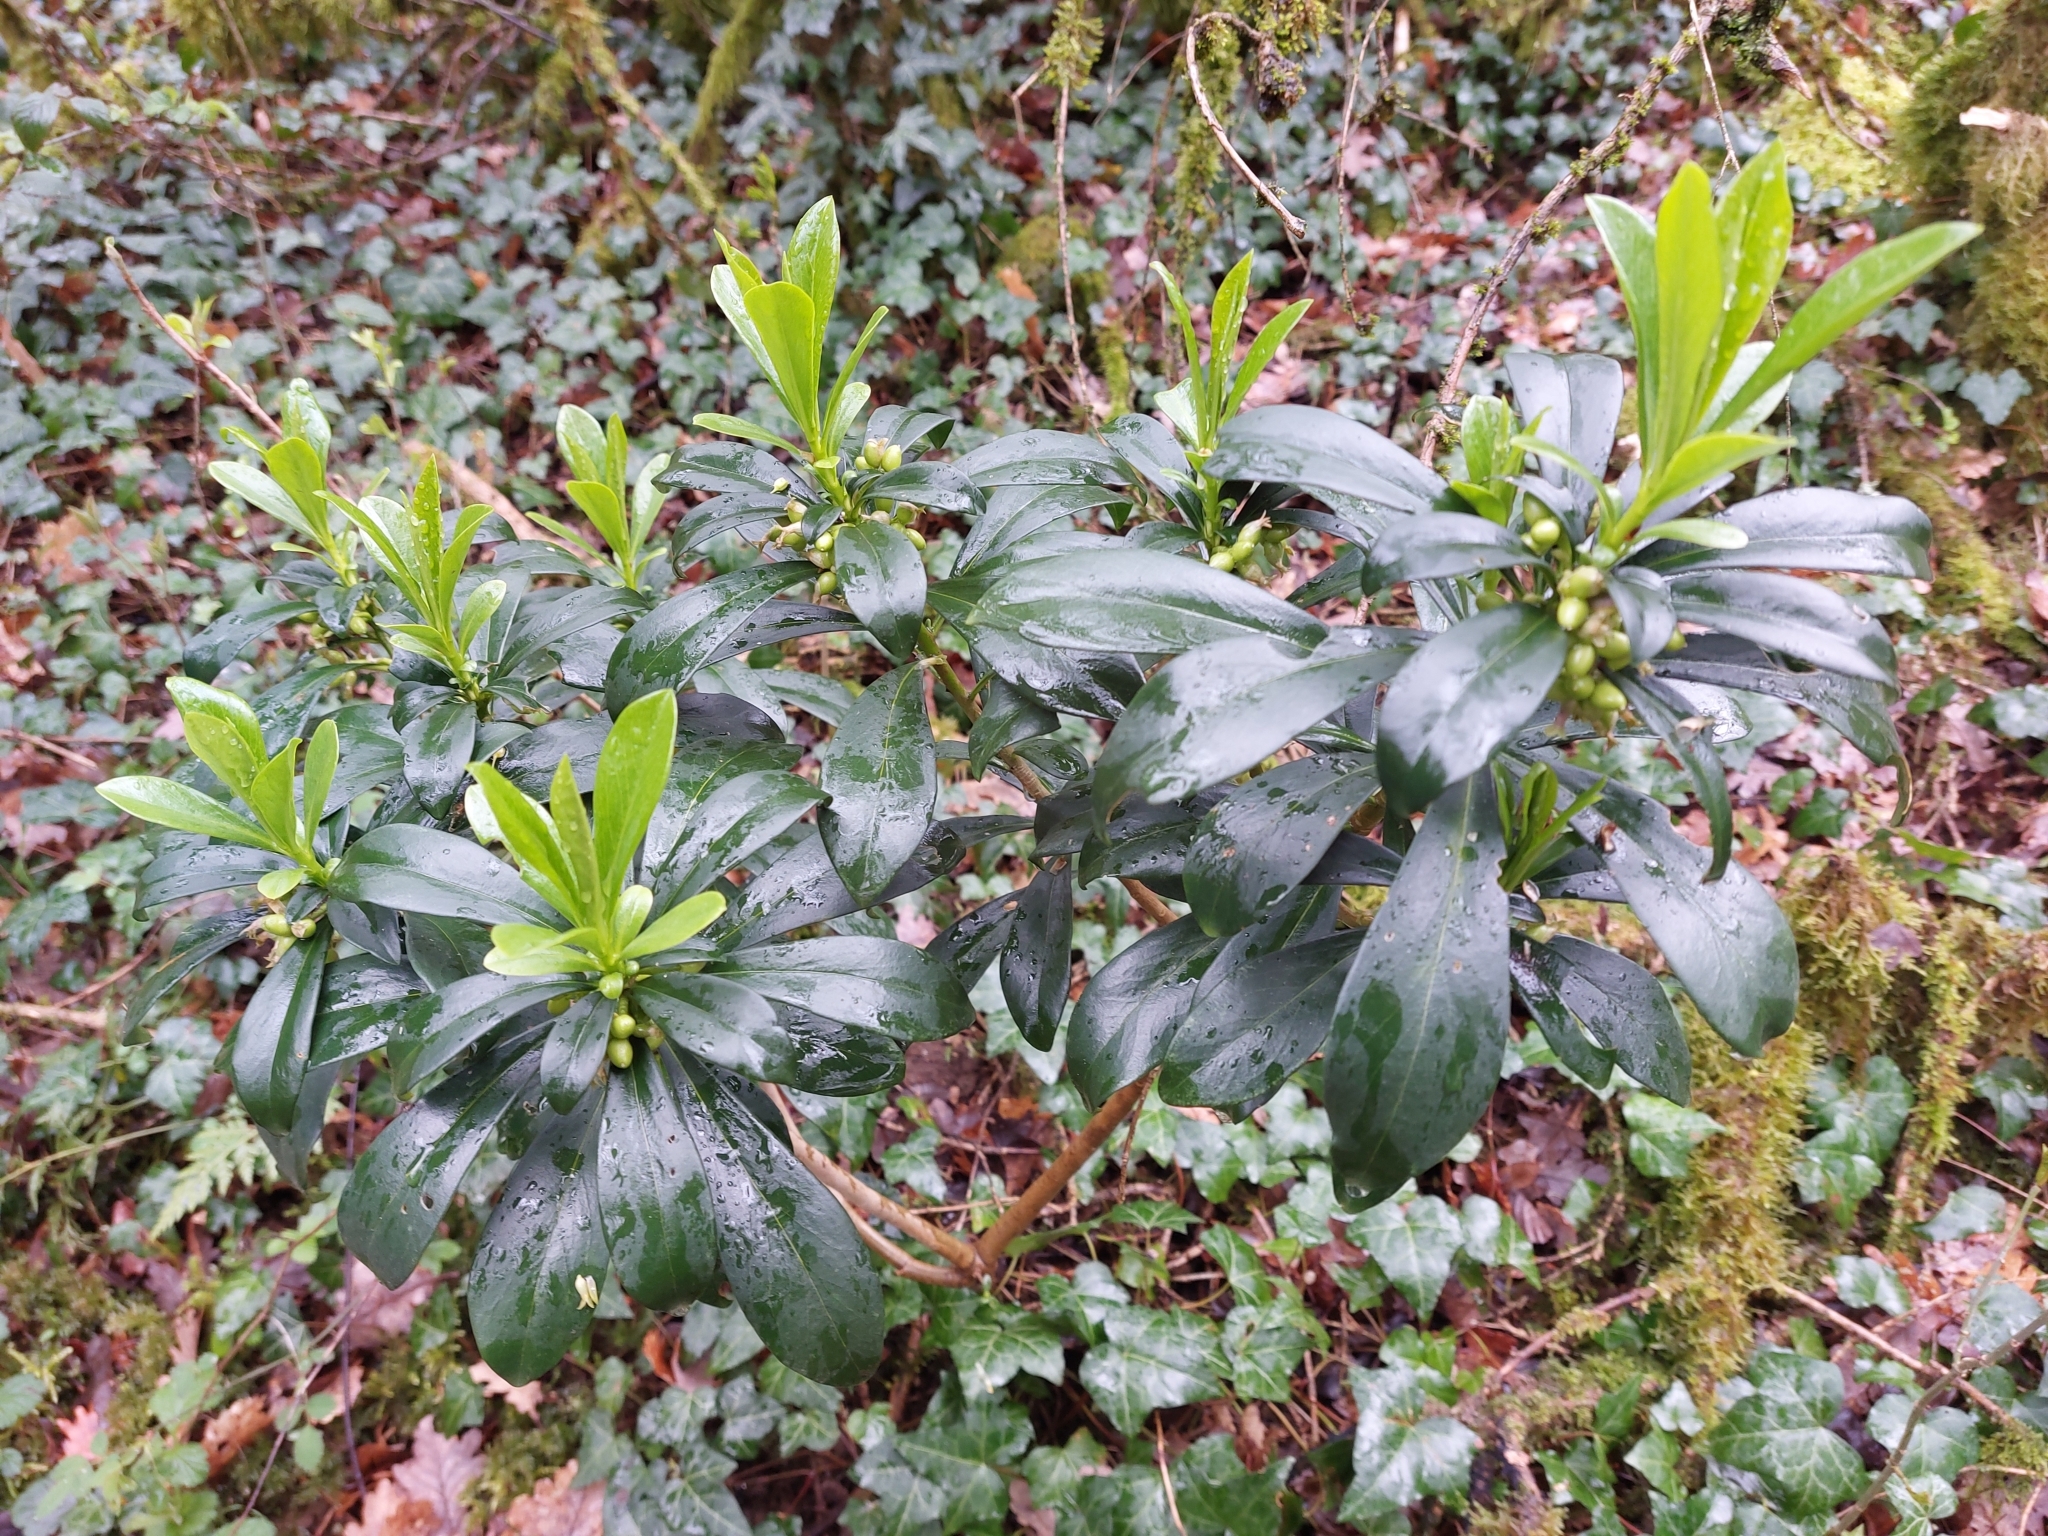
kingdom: Plantae
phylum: Tracheophyta
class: Magnoliopsida
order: Malvales
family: Thymelaeaceae
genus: Daphne
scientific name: Daphne laureola
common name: Spurge-laurel
